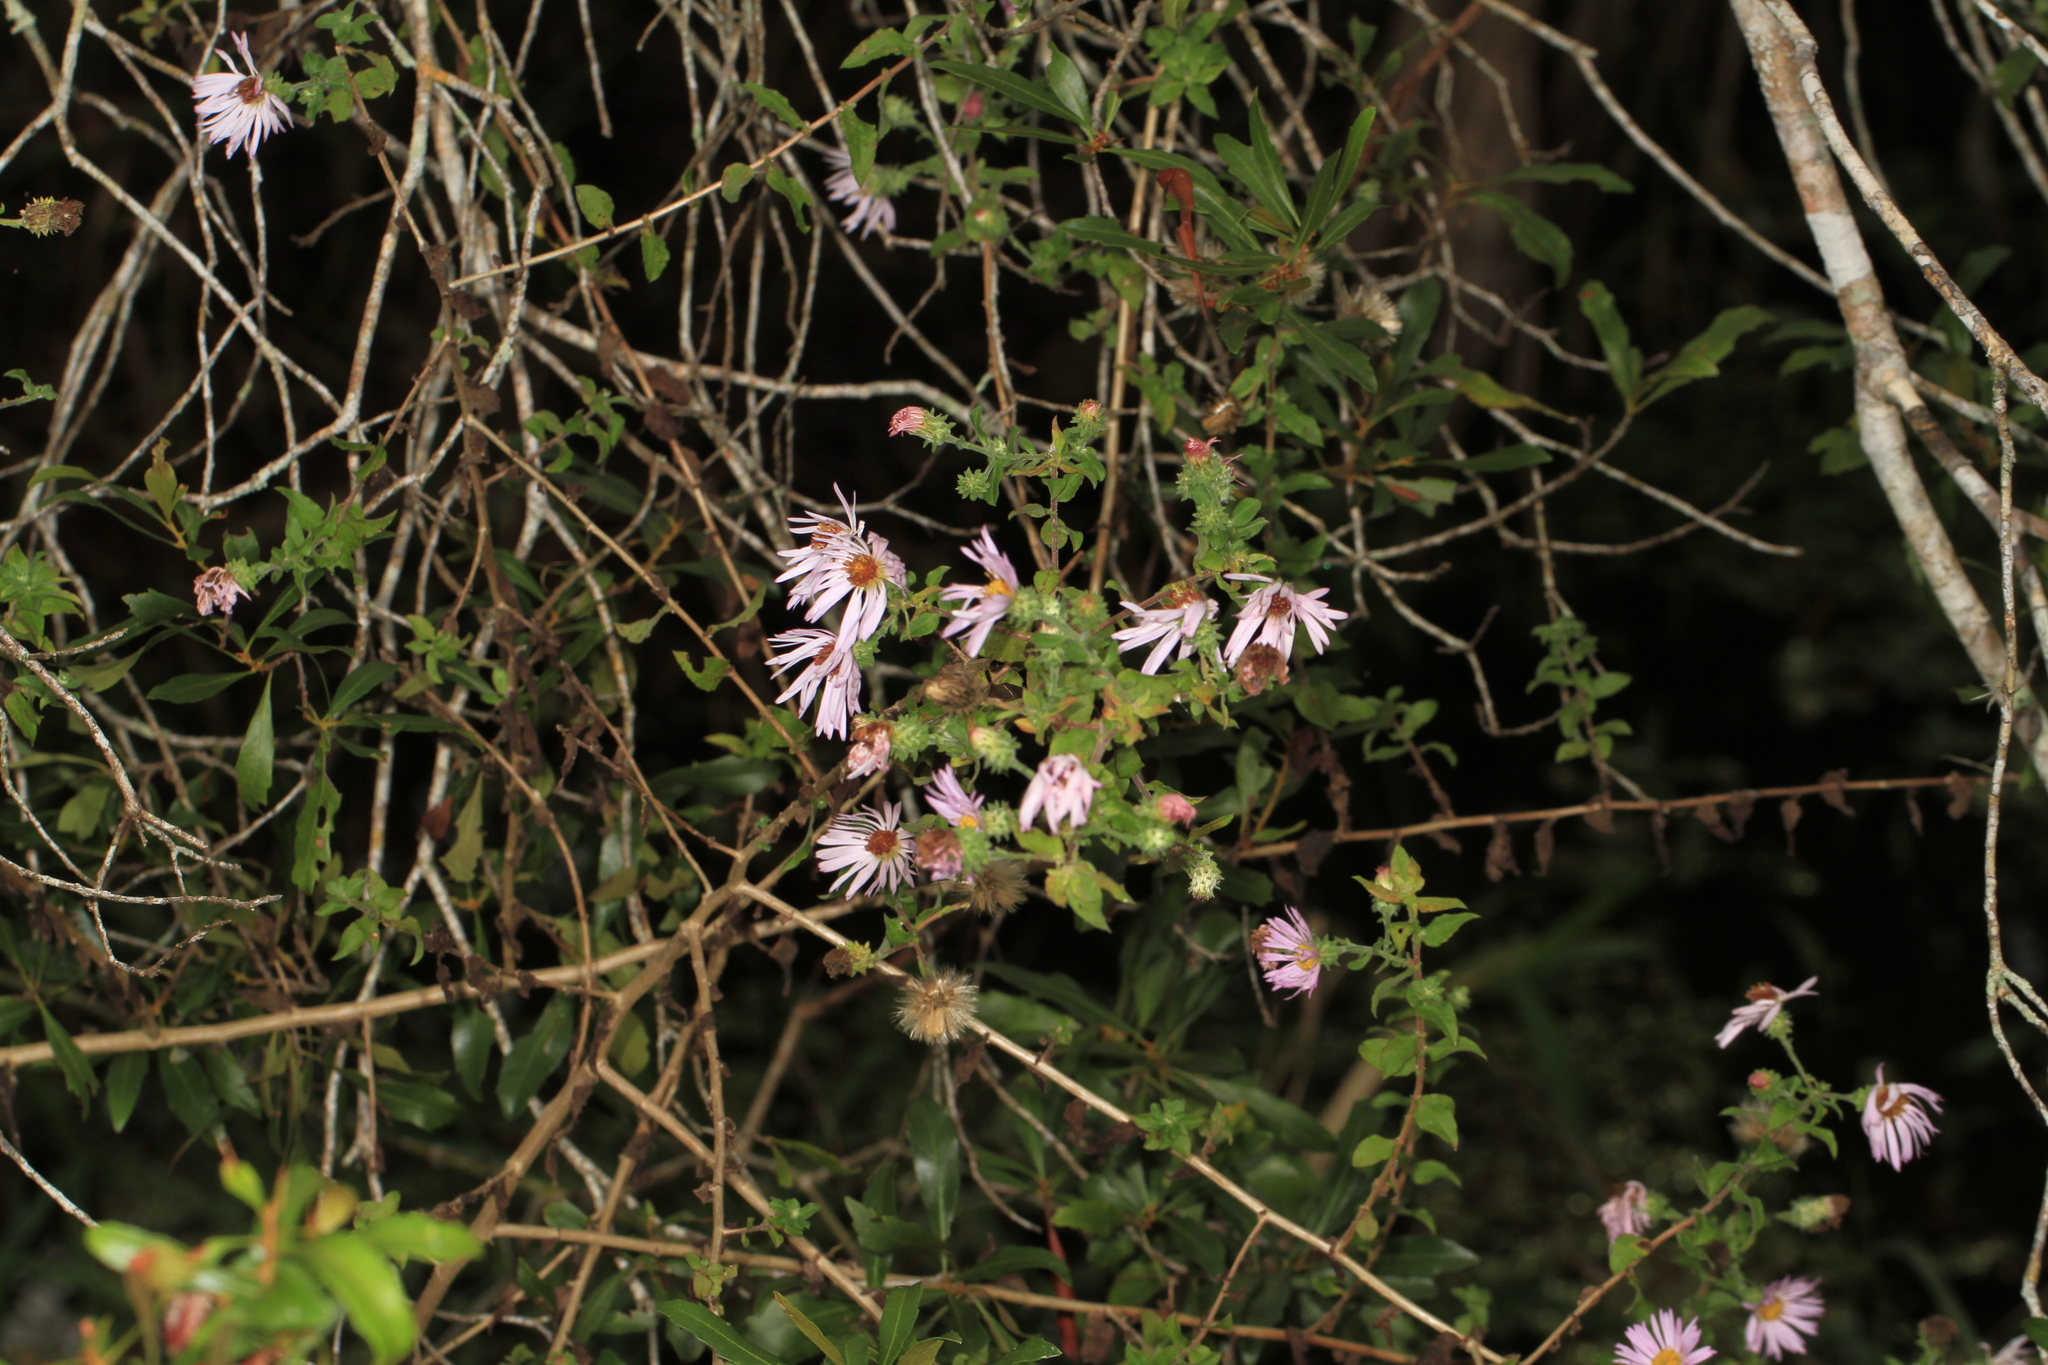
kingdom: Plantae
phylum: Tracheophyta
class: Magnoliopsida
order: Asterales
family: Asteraceae
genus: Ampelaster
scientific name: Ampelaster carolinianus
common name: Climbing aster
